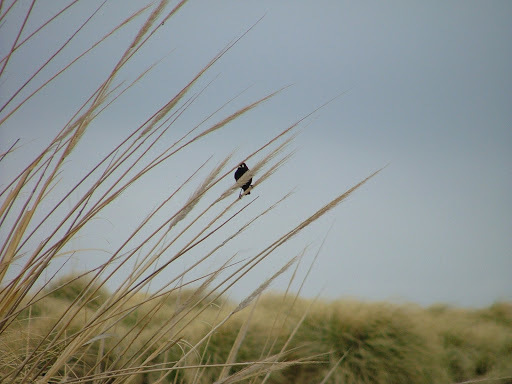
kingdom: Animalia
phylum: Chordata
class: Aves
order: Passeriformes
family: Tyrannidae
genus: Hymenops
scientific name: Hymenops perspicillatus
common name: Spectacled tyrant
